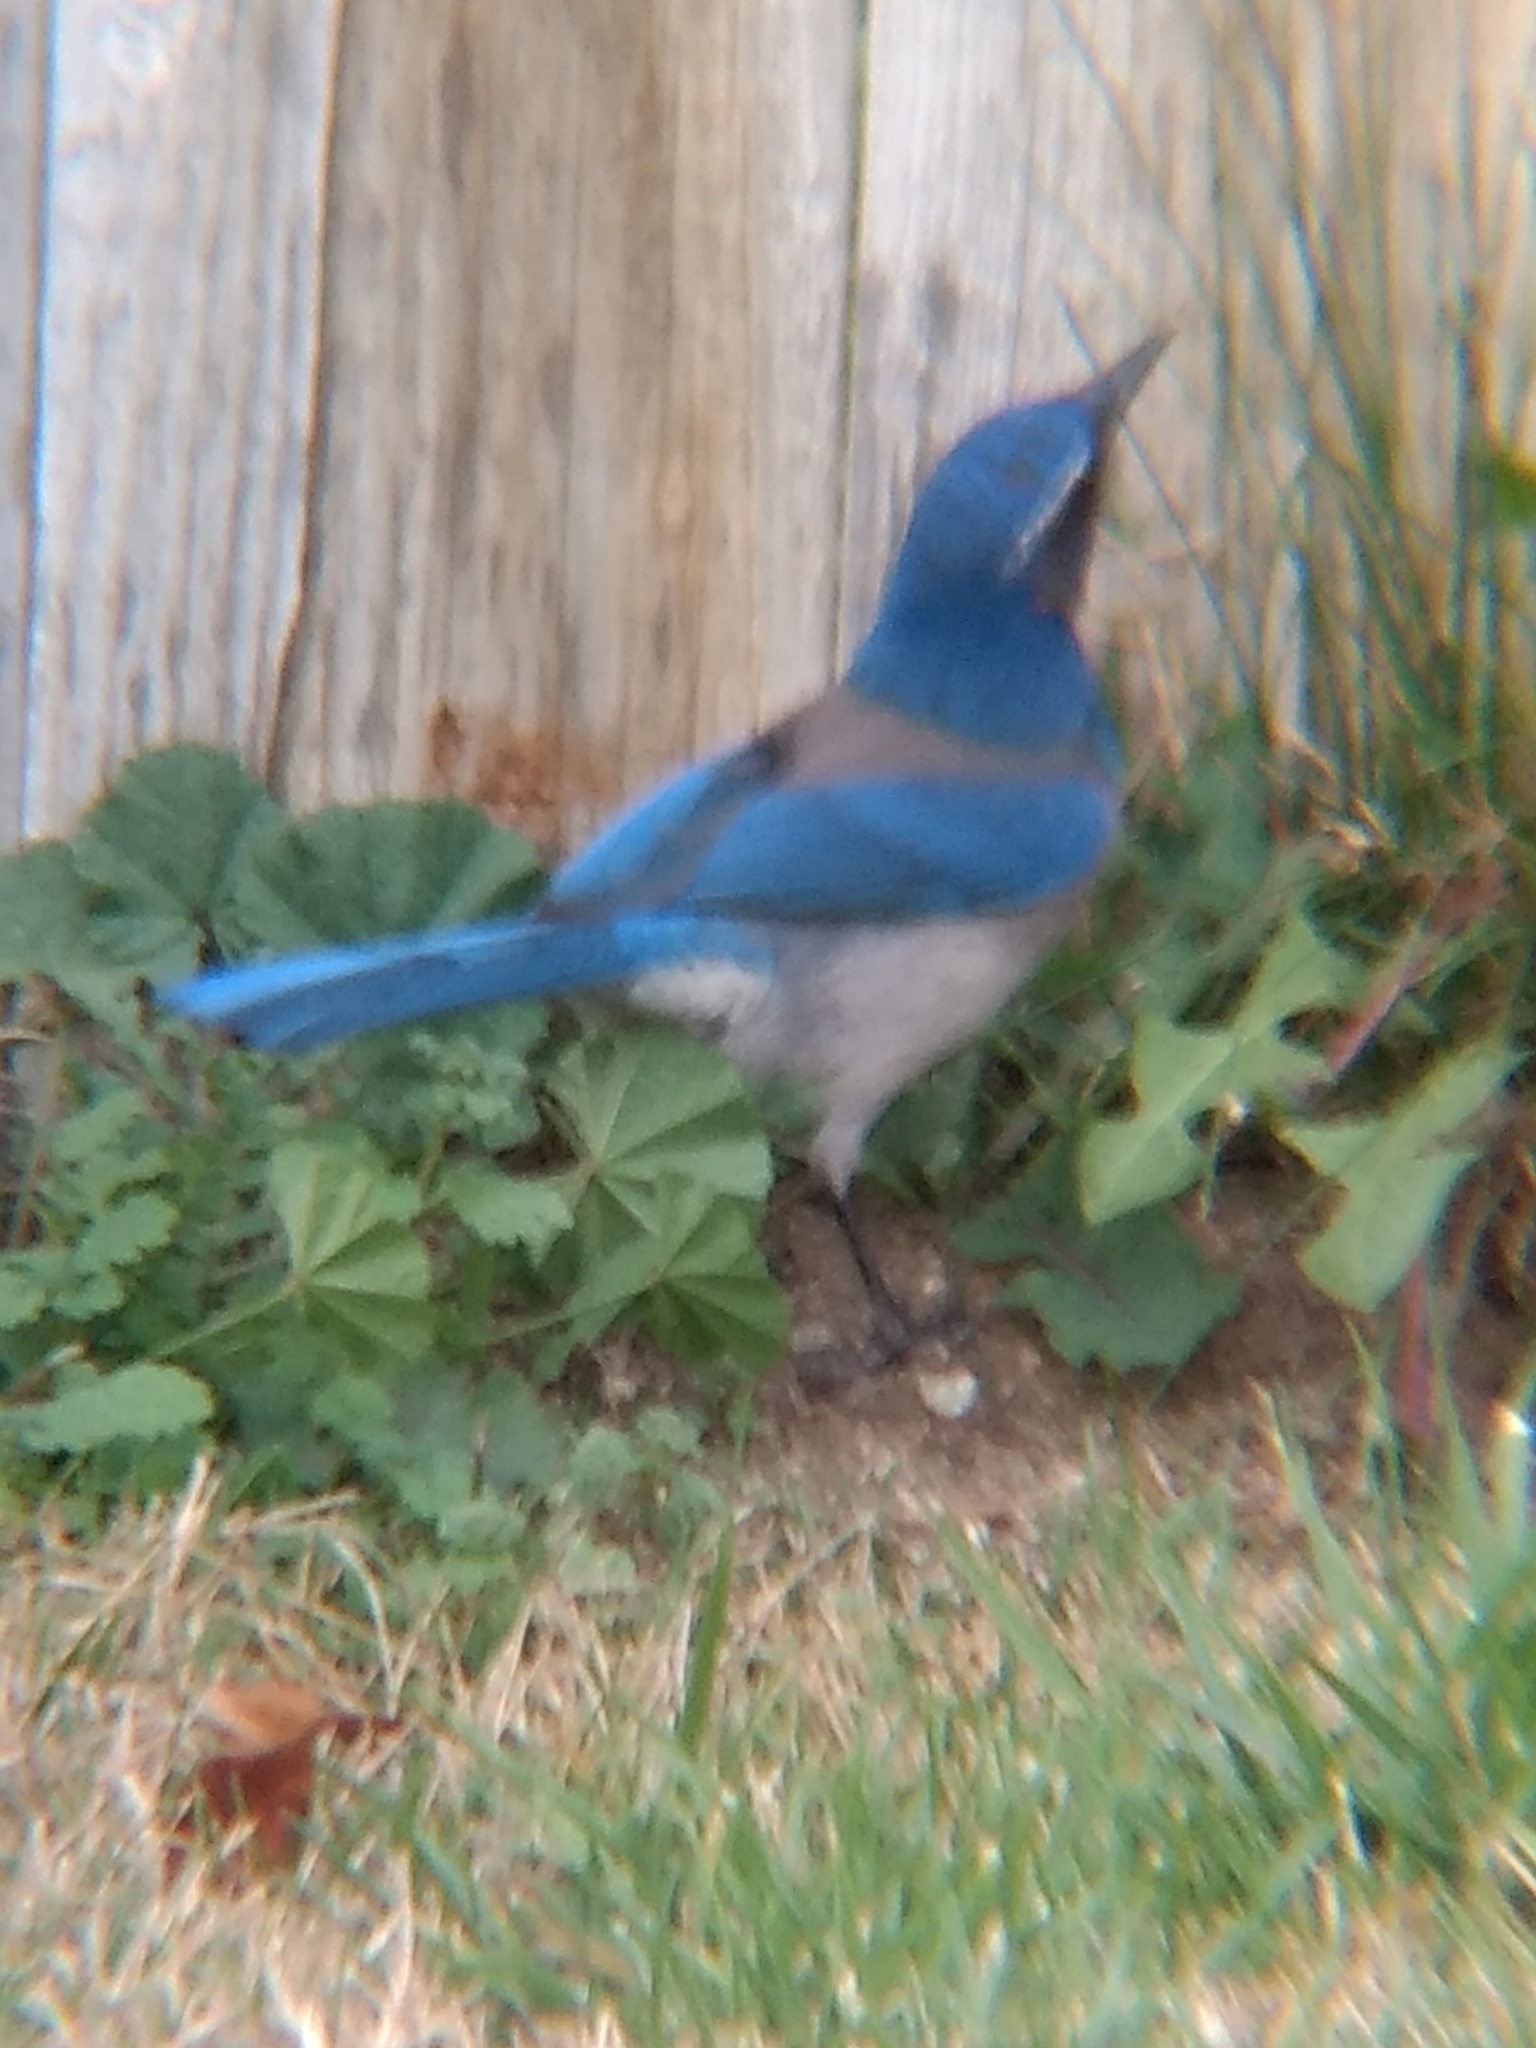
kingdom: Animalia
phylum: Chordata
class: Aves
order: Passeriformes
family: Corvidae
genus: Aphelocoma
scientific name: Aphelocoma californica
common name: California scrub-jay
